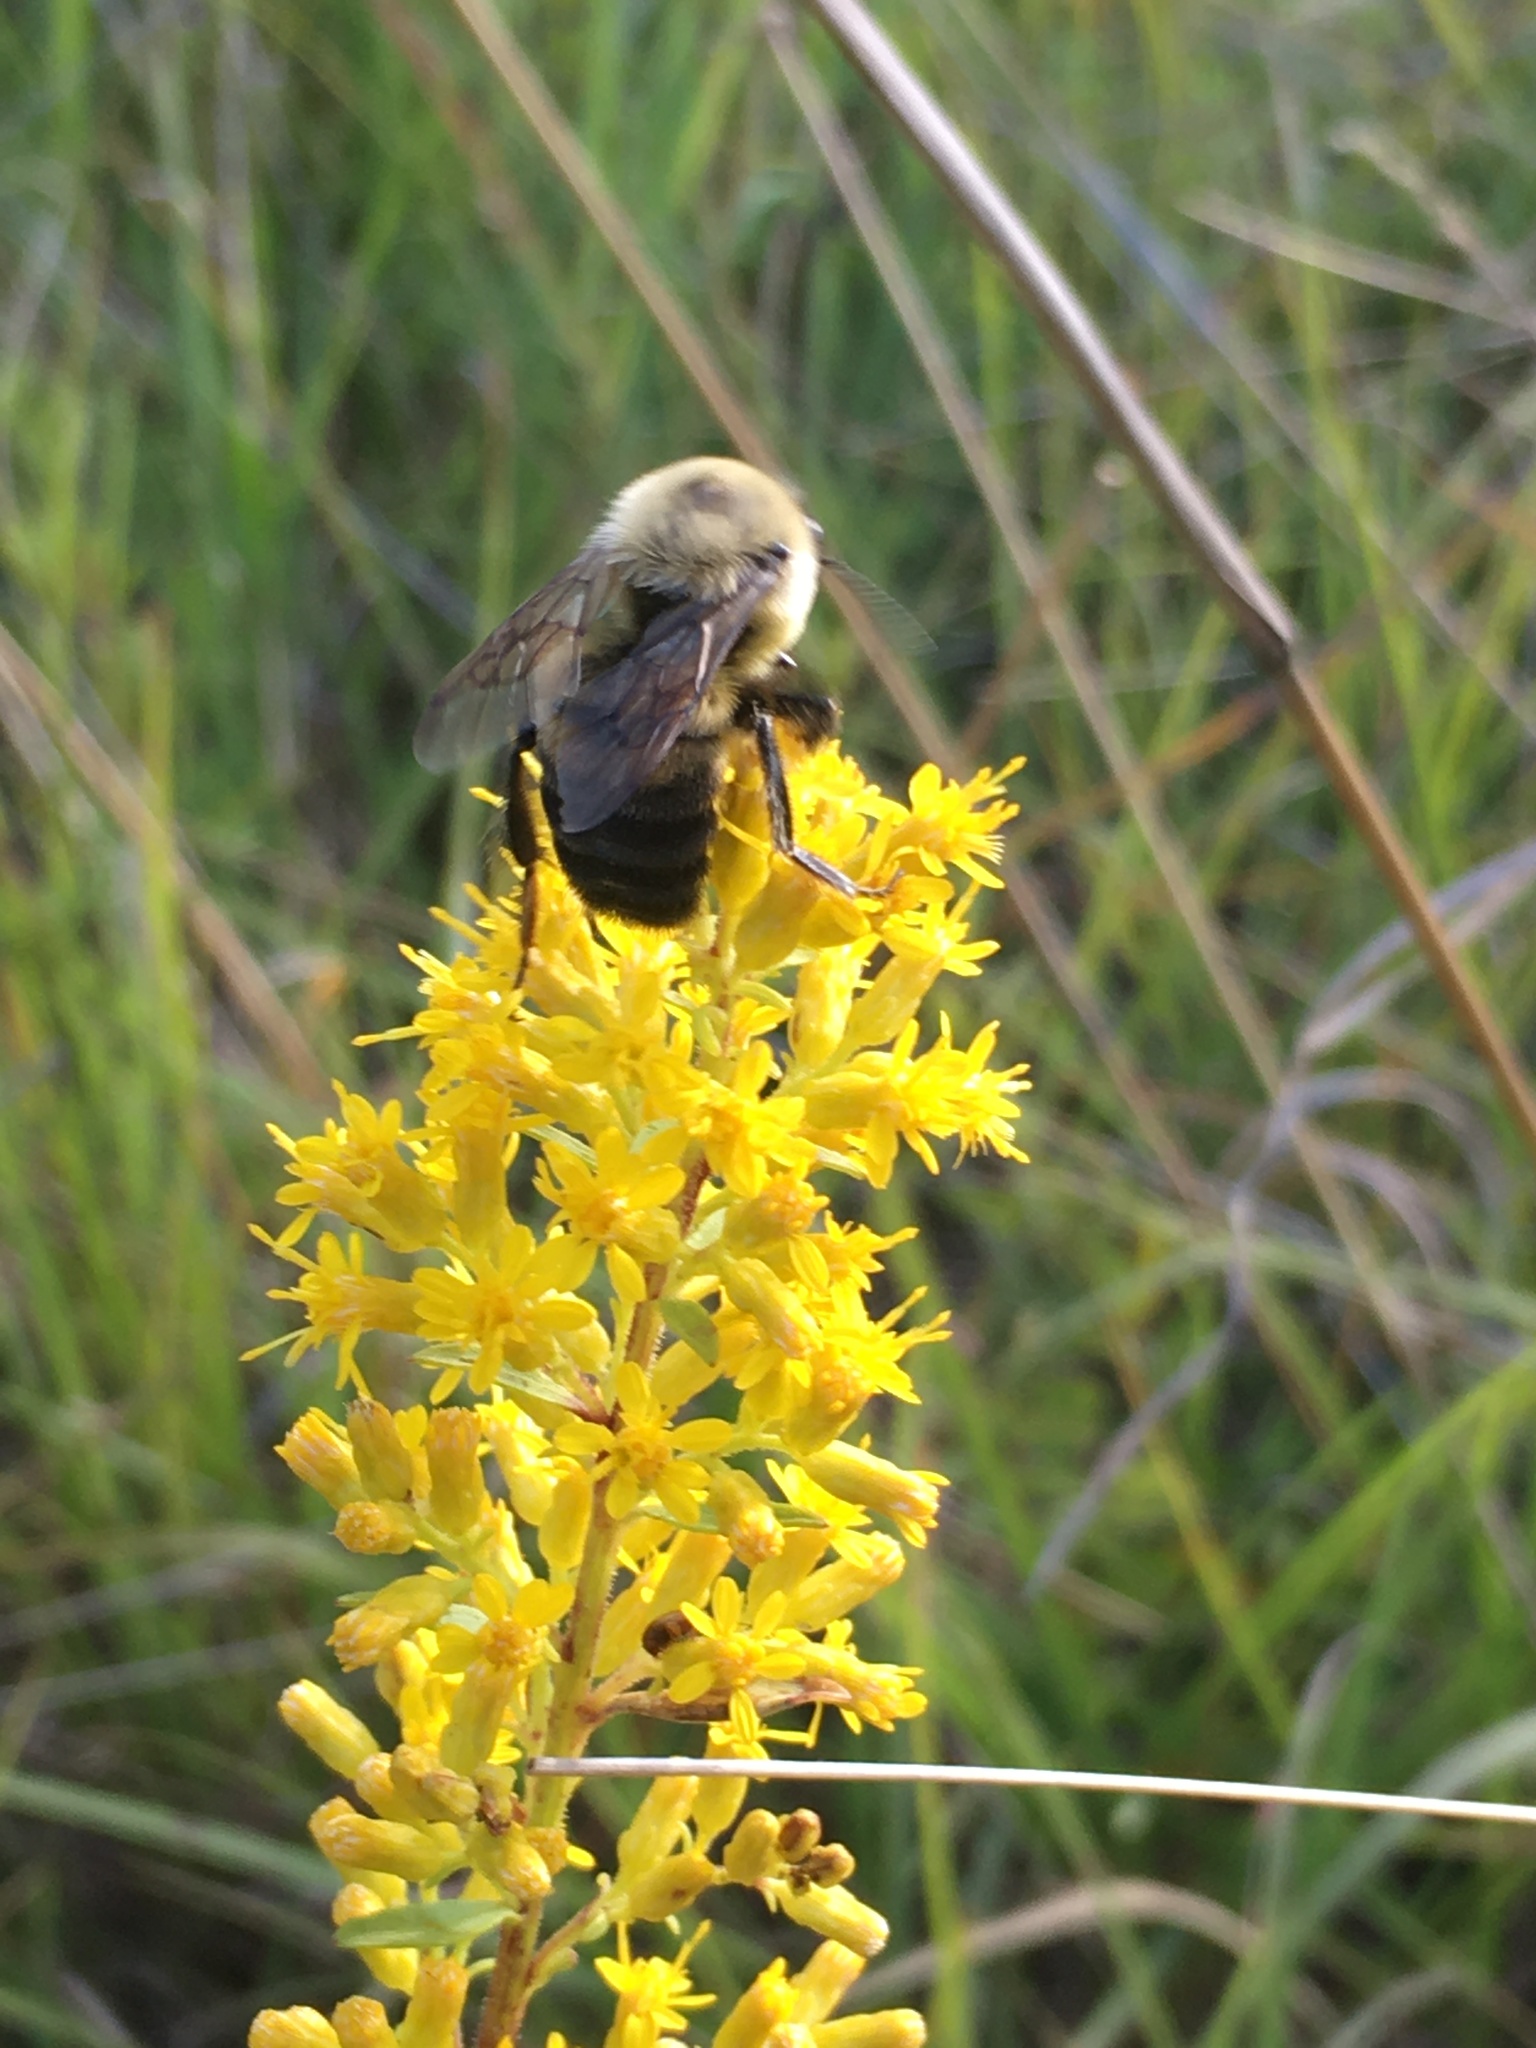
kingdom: Animalia
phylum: Arthropoda
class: Insecta
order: Hymenoptera
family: Apidae
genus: Bombus
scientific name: Bombus griseocollis
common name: Brown-belted bumble bee
